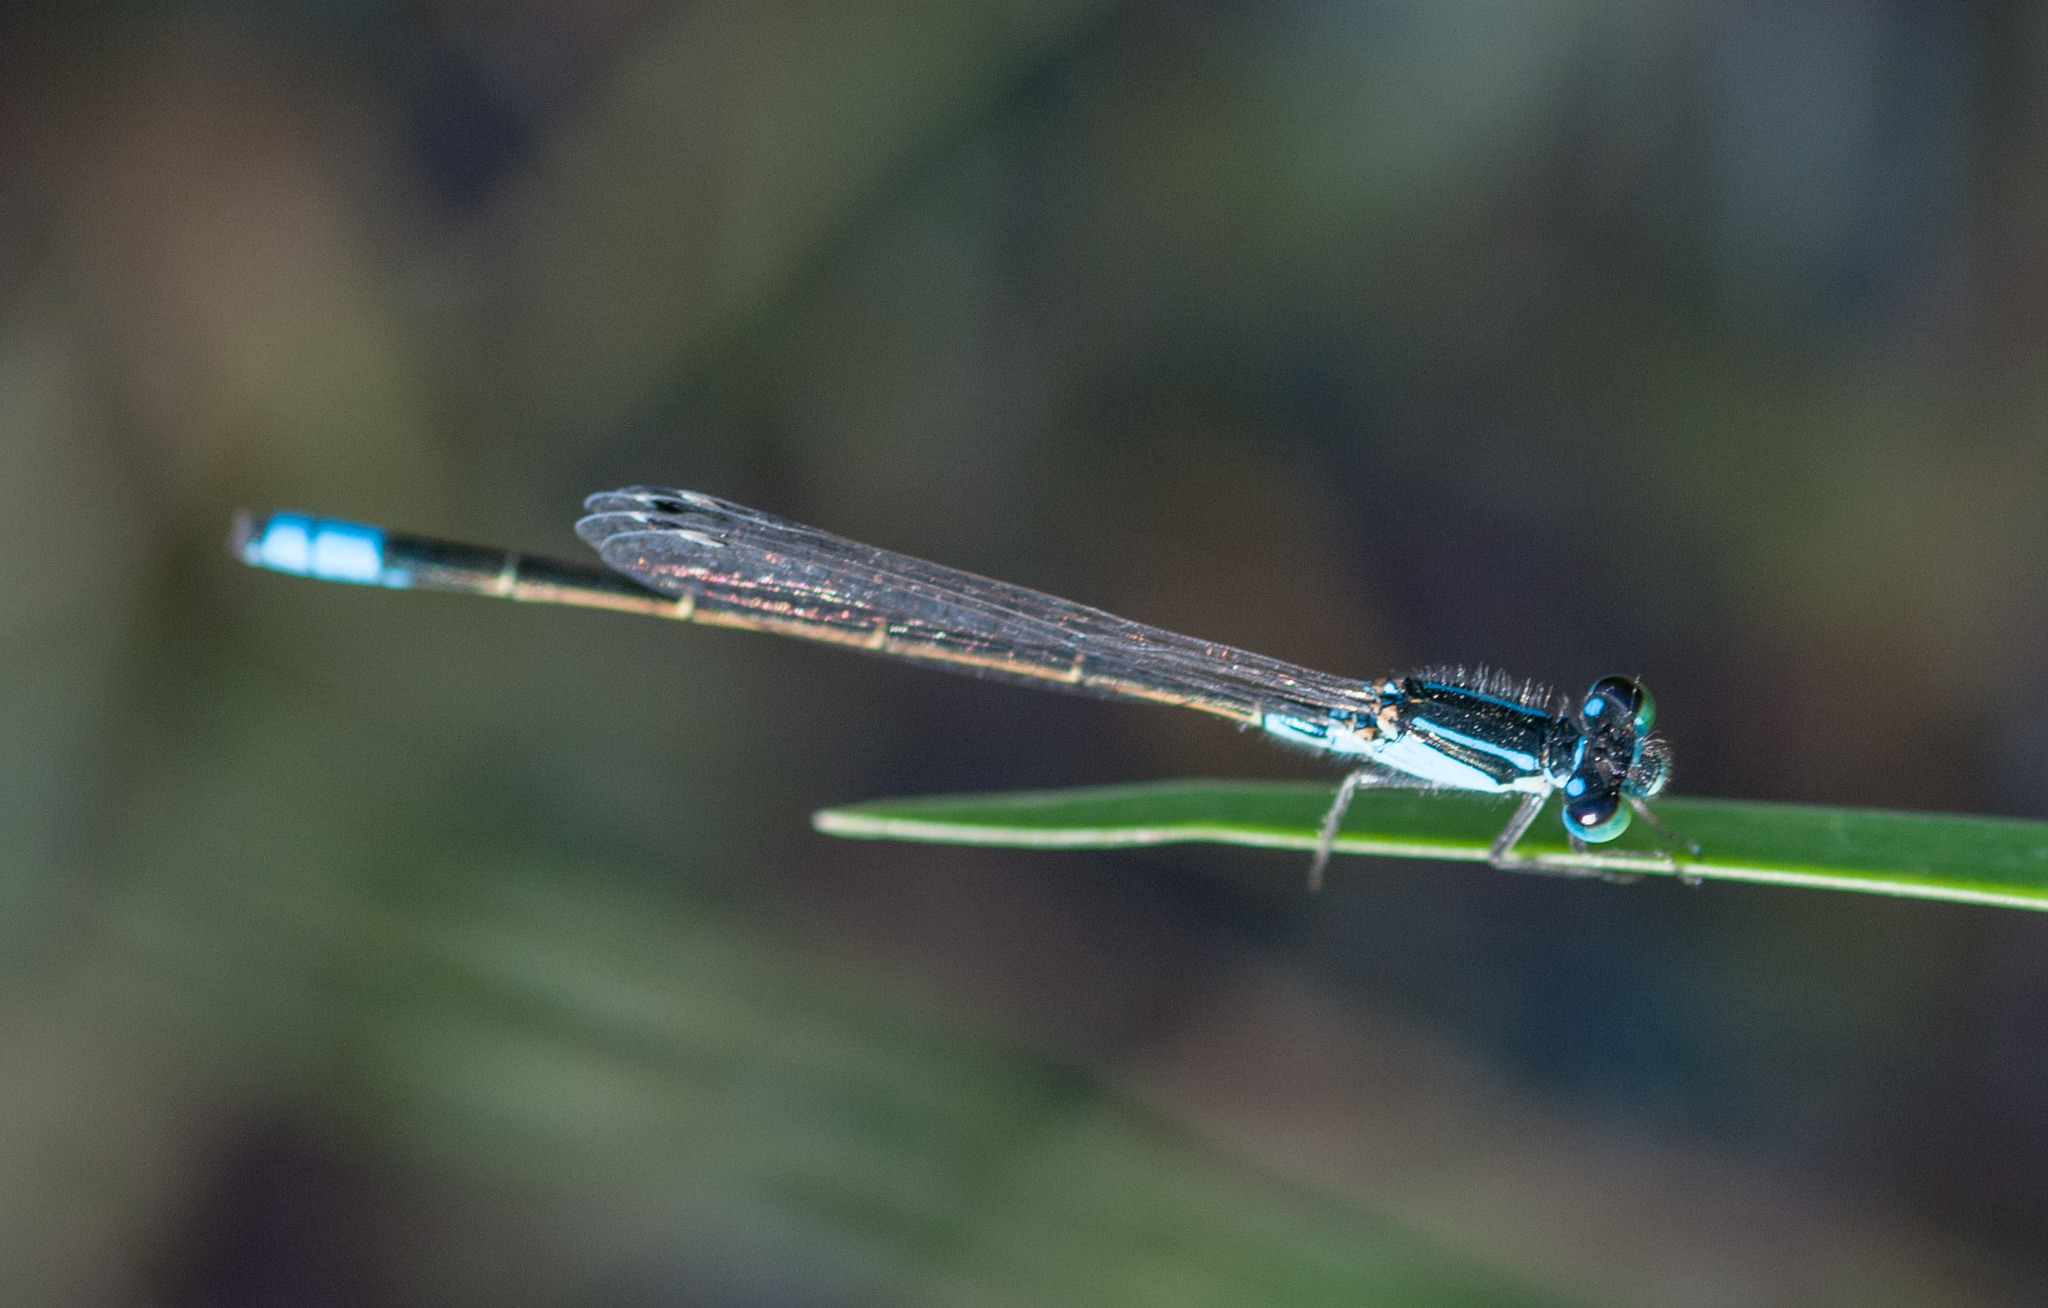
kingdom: Animalia
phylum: Arthropoda
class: Insecta
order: Odonata
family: Coenagrionidae
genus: Ischnura
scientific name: Ischnura heterosticta
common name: Common bluetail
